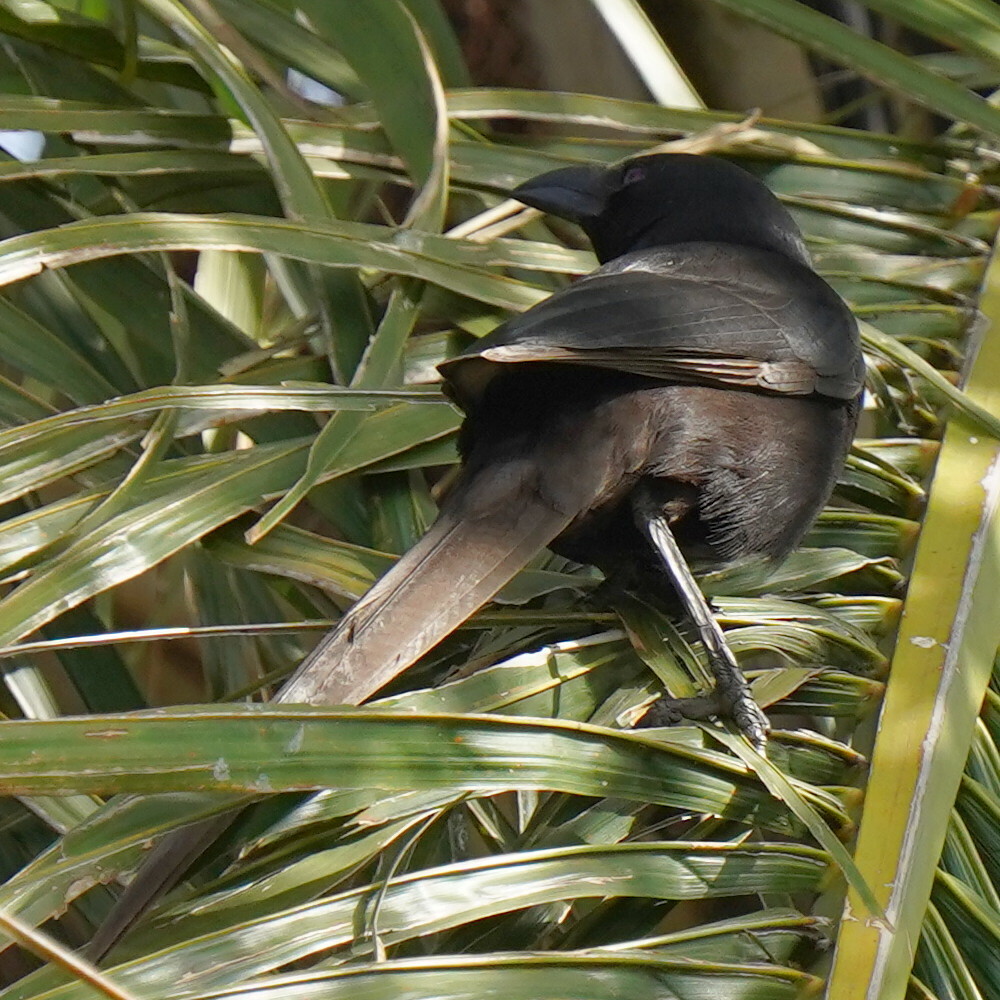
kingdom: Animalia
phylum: Chordata
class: Aves
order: Passeriformes
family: Corvidae
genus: Ptilostomus
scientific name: Ptilostomus afer
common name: Piapiac
